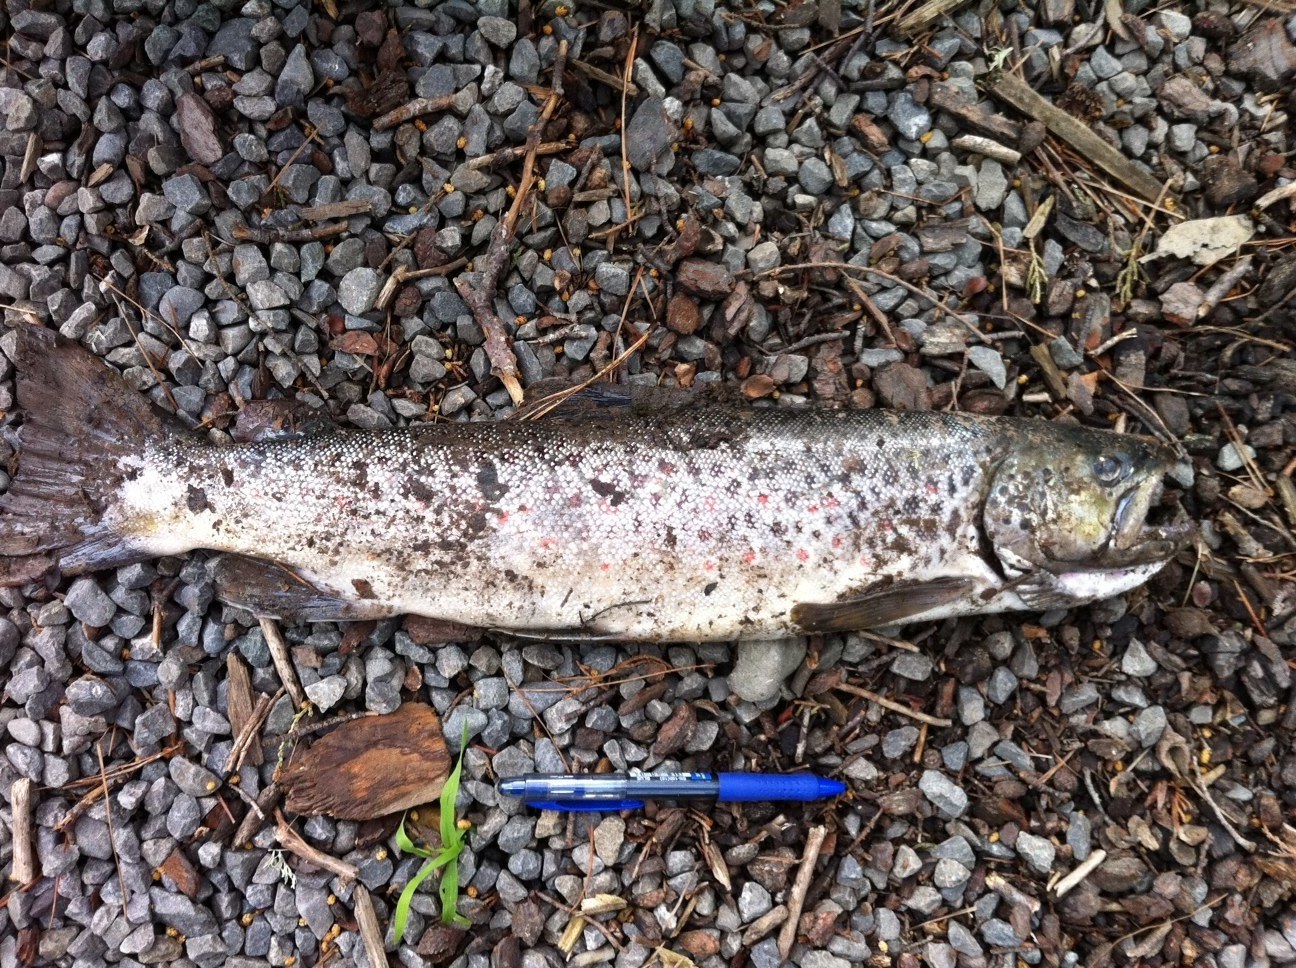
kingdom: Animalia
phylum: Chordata
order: Salmoniformes
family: Salmonidae
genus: Salmo
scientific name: Salmo trutta
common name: Brown trout
